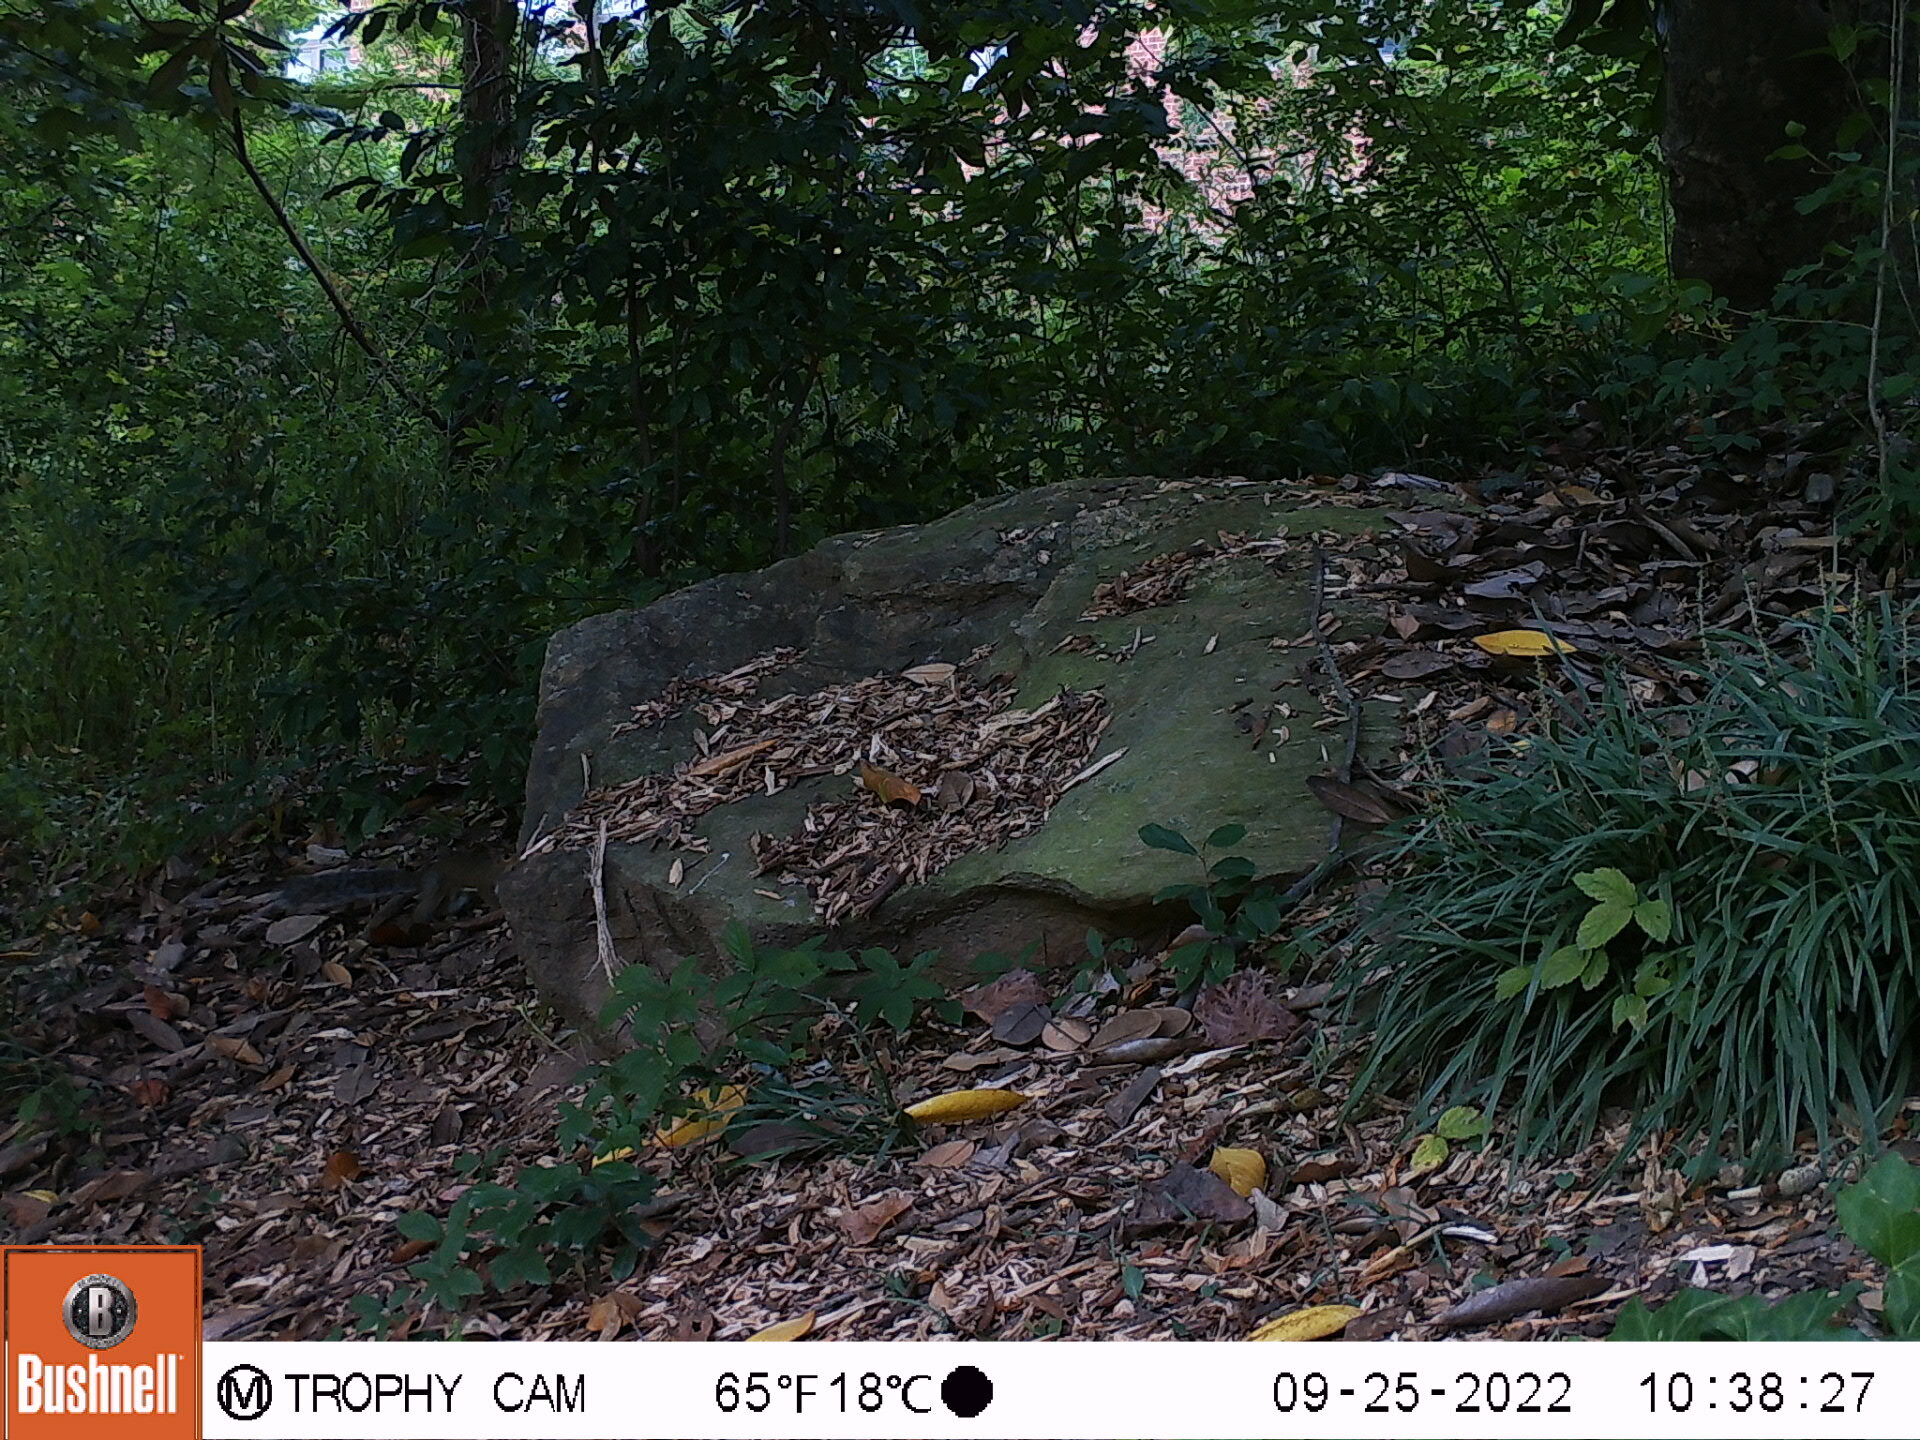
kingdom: Animalia
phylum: Chordata
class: Mammalia
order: Rodentia
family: Sciuridae
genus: Sciurus
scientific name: Sciurus carolinensis
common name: Eastern gray squirrel
